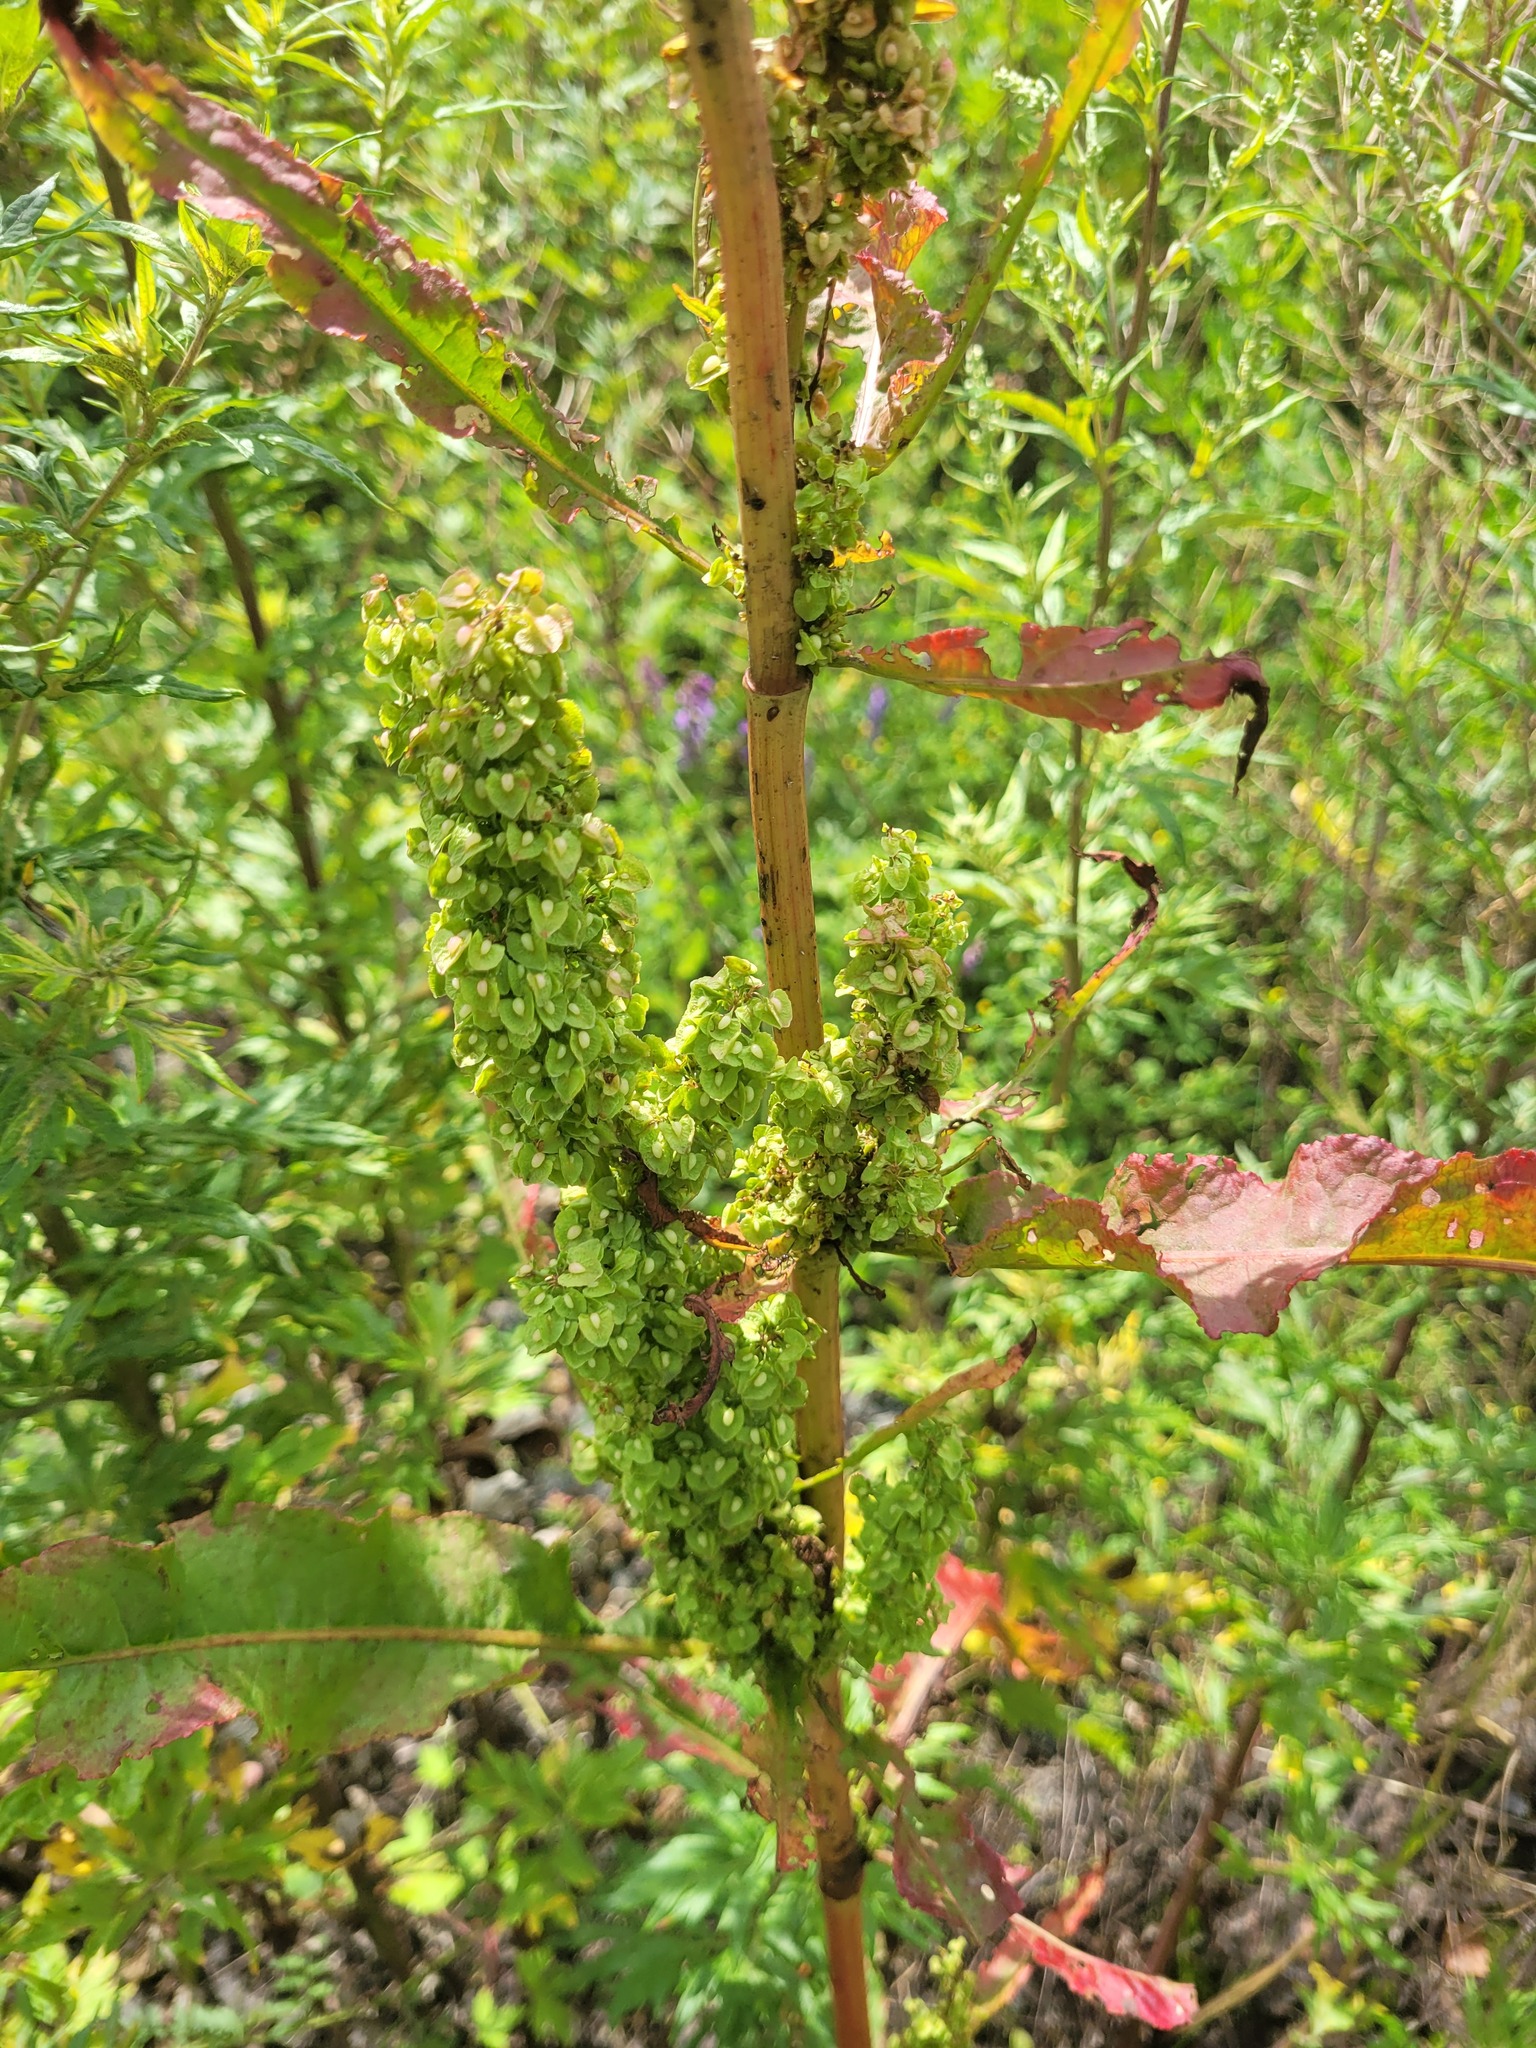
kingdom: Plantae
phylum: Tracheophyta
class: Magnoliopsida
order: Caryophyllales
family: Polygonaceae
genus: Rumex
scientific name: Rumex crispus
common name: Curled dock
